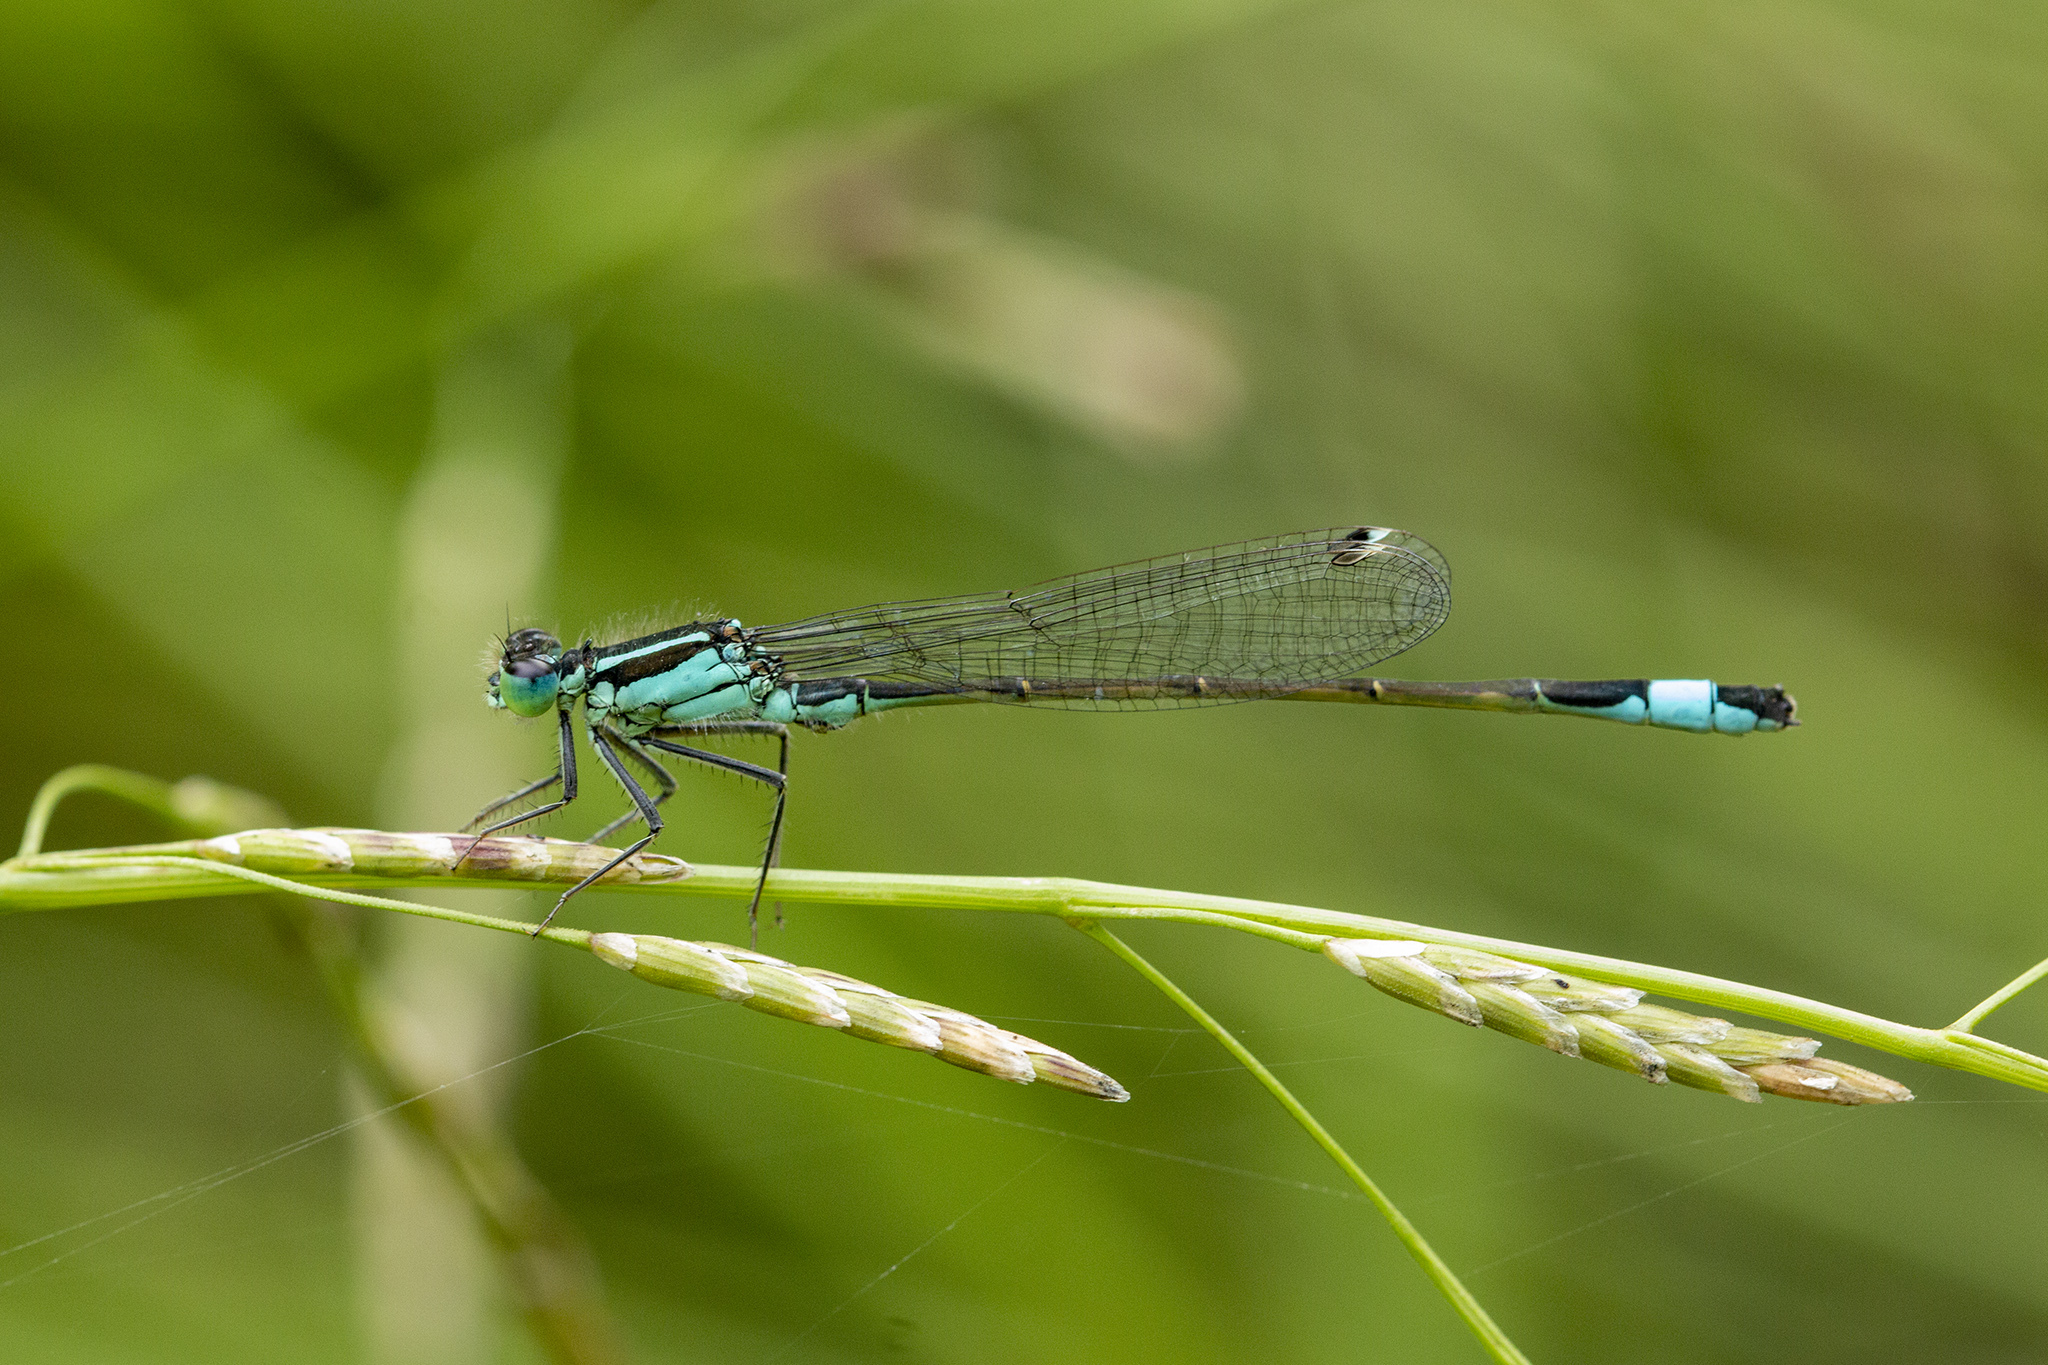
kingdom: Animalia
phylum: Arthropoda
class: Insecta
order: Odonata
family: Coenagrionidae
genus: Ischnura
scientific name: Ischnura elegans
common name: Blue-tailed damselfly
